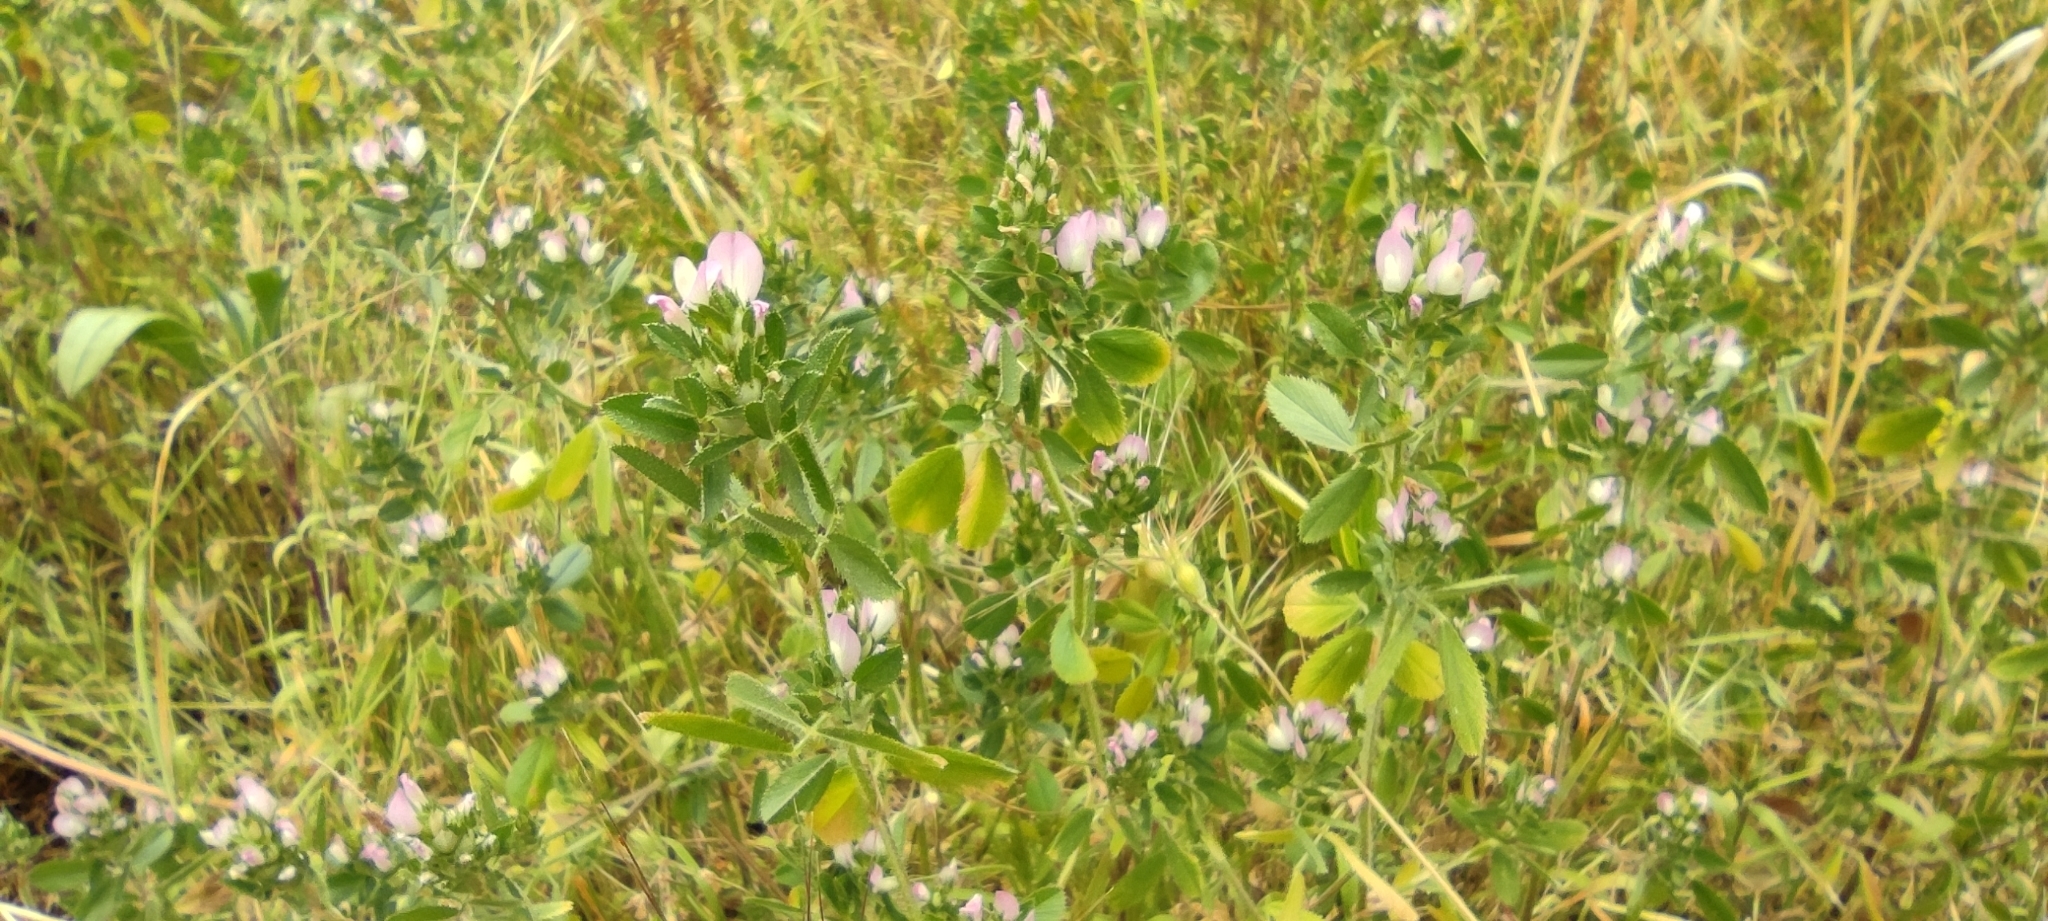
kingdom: Plantae
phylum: Tracheophyta
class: Magnoliopsida
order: Fabales
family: Fabaceae
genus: Ononis
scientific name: Ononis mitissima
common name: Mediterranean restharrow
